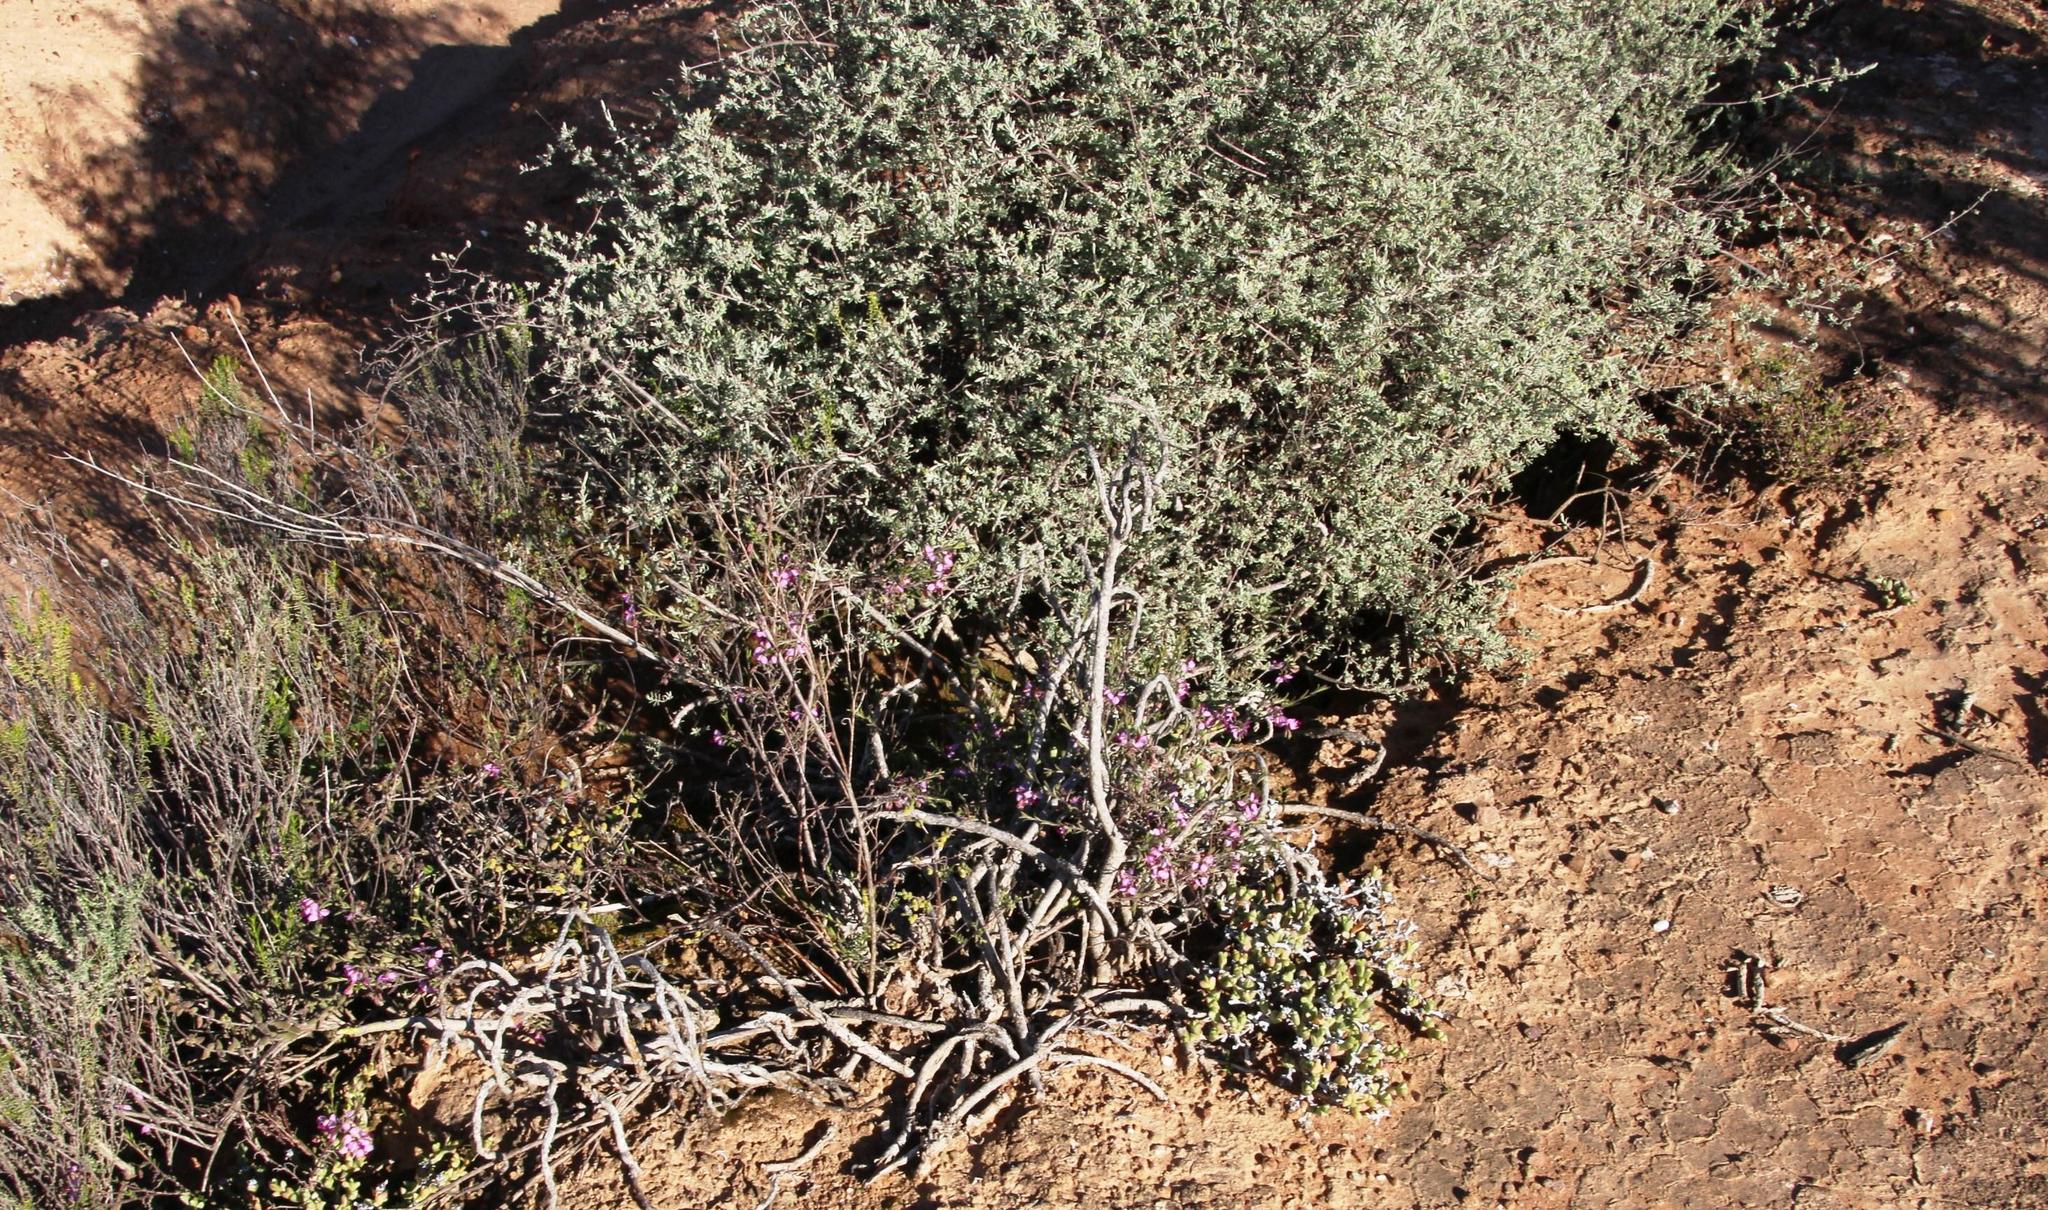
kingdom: Plantae
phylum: Tracheophyta
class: Magnoliopsida
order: Fabales
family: Polygalaceae
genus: Polygala
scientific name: Polygala scabra
